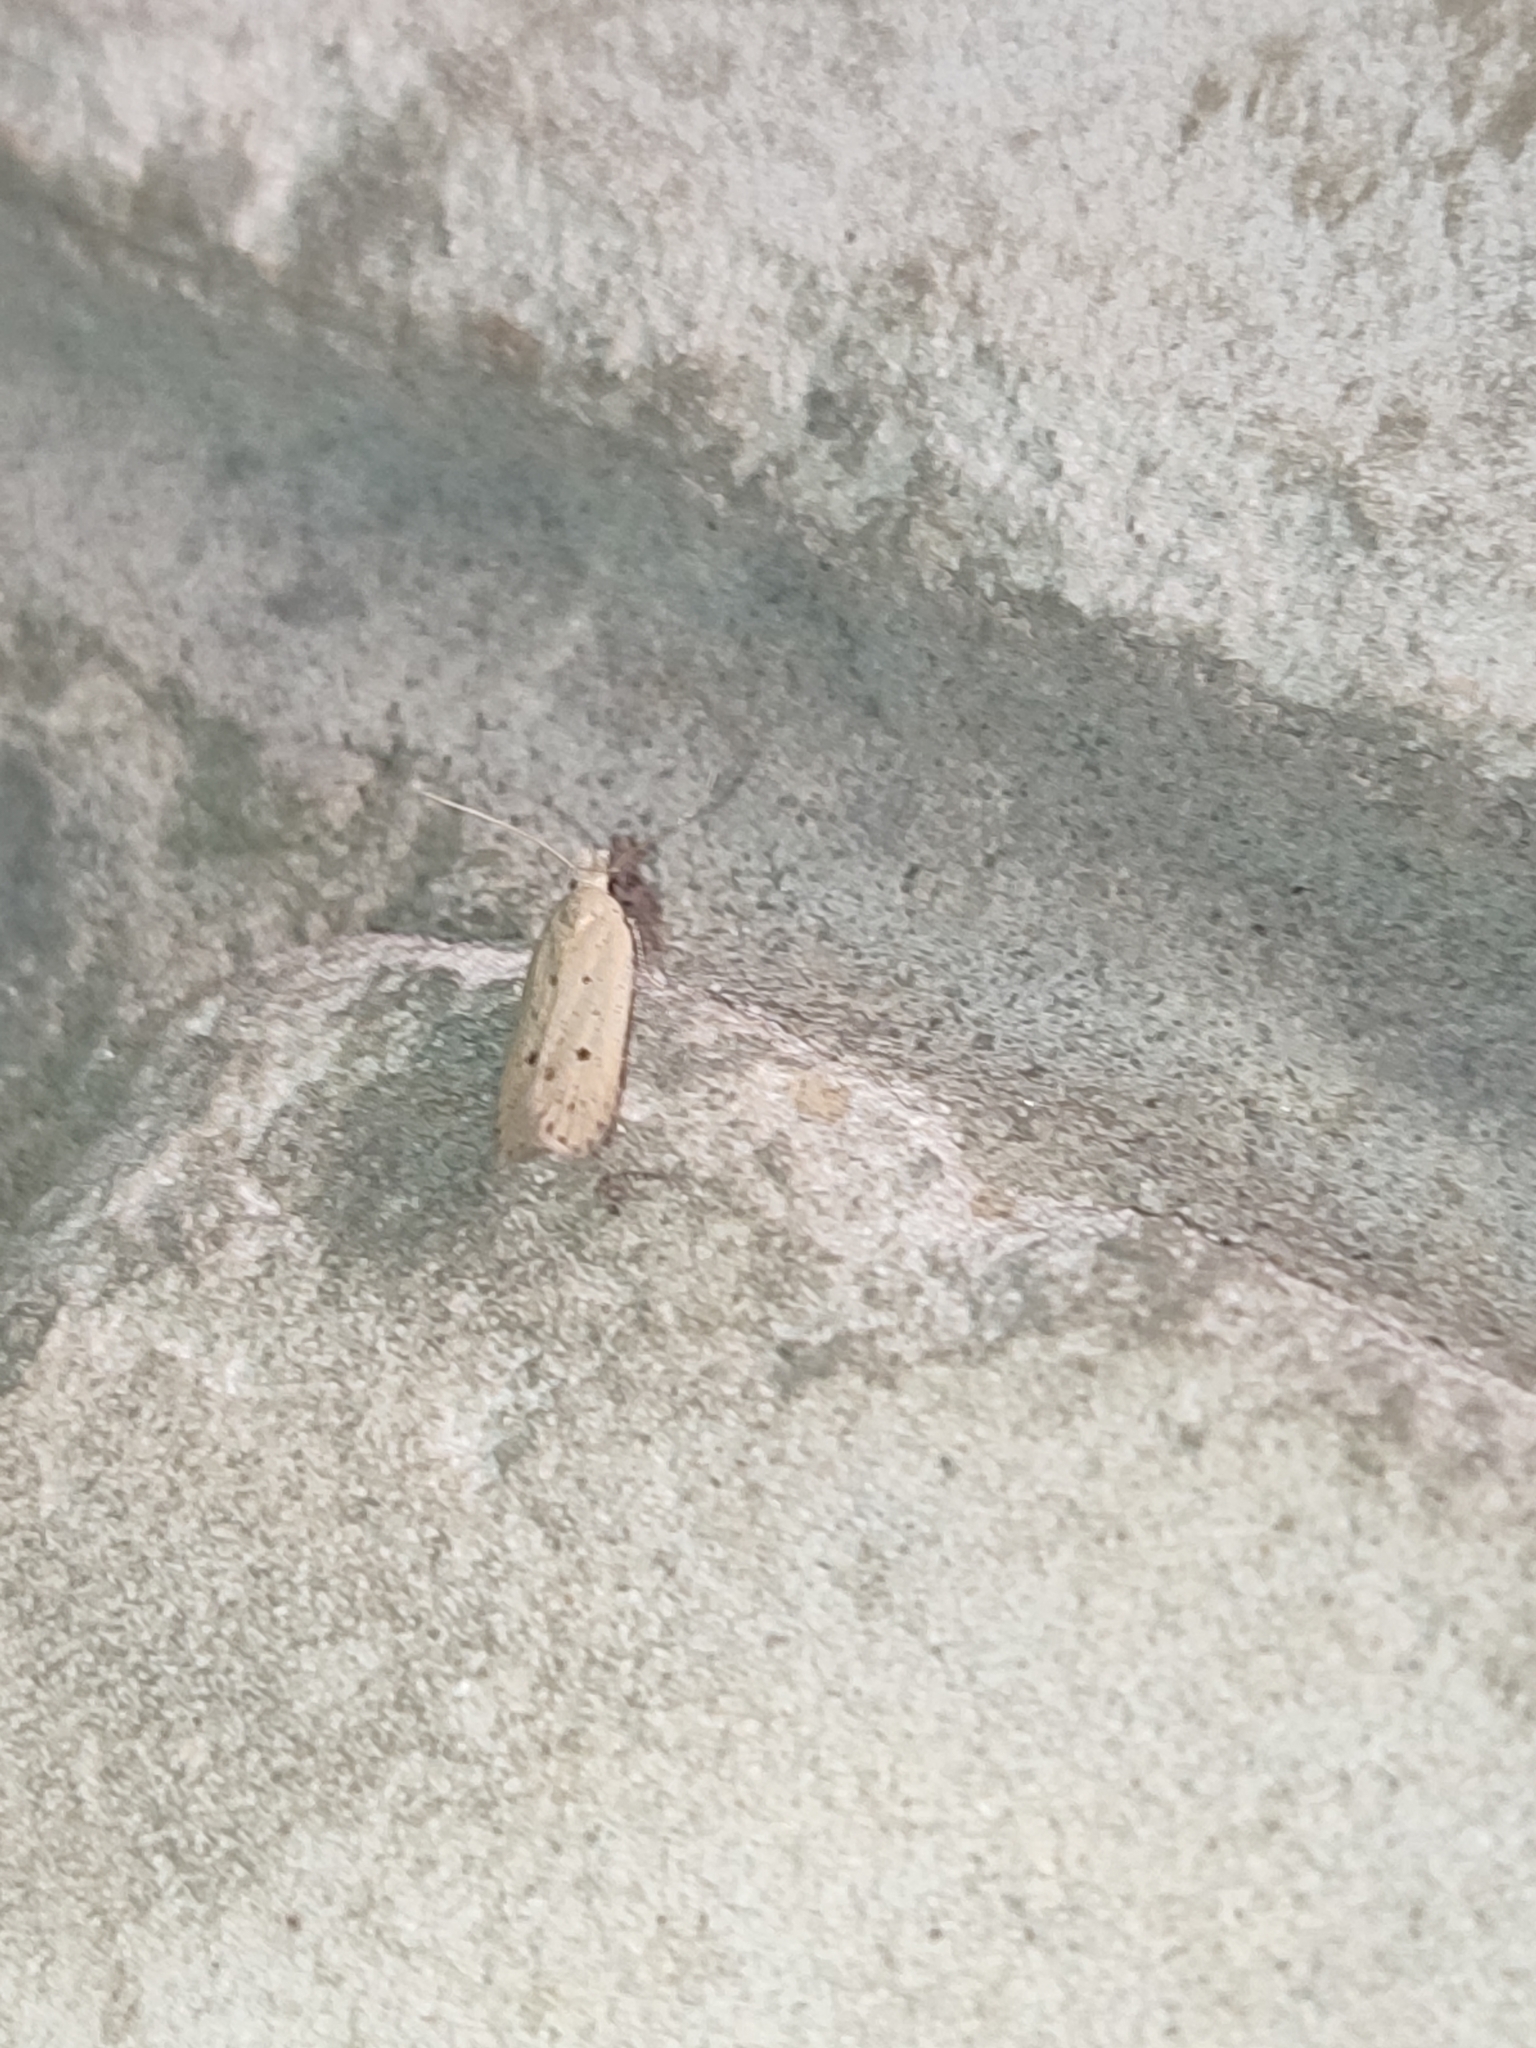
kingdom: Animalia
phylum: Arthropoda
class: Insecta
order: Lepidoptera
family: Gelechiidae
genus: Nothris
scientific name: Nothris verbascella
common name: Clay groundling
